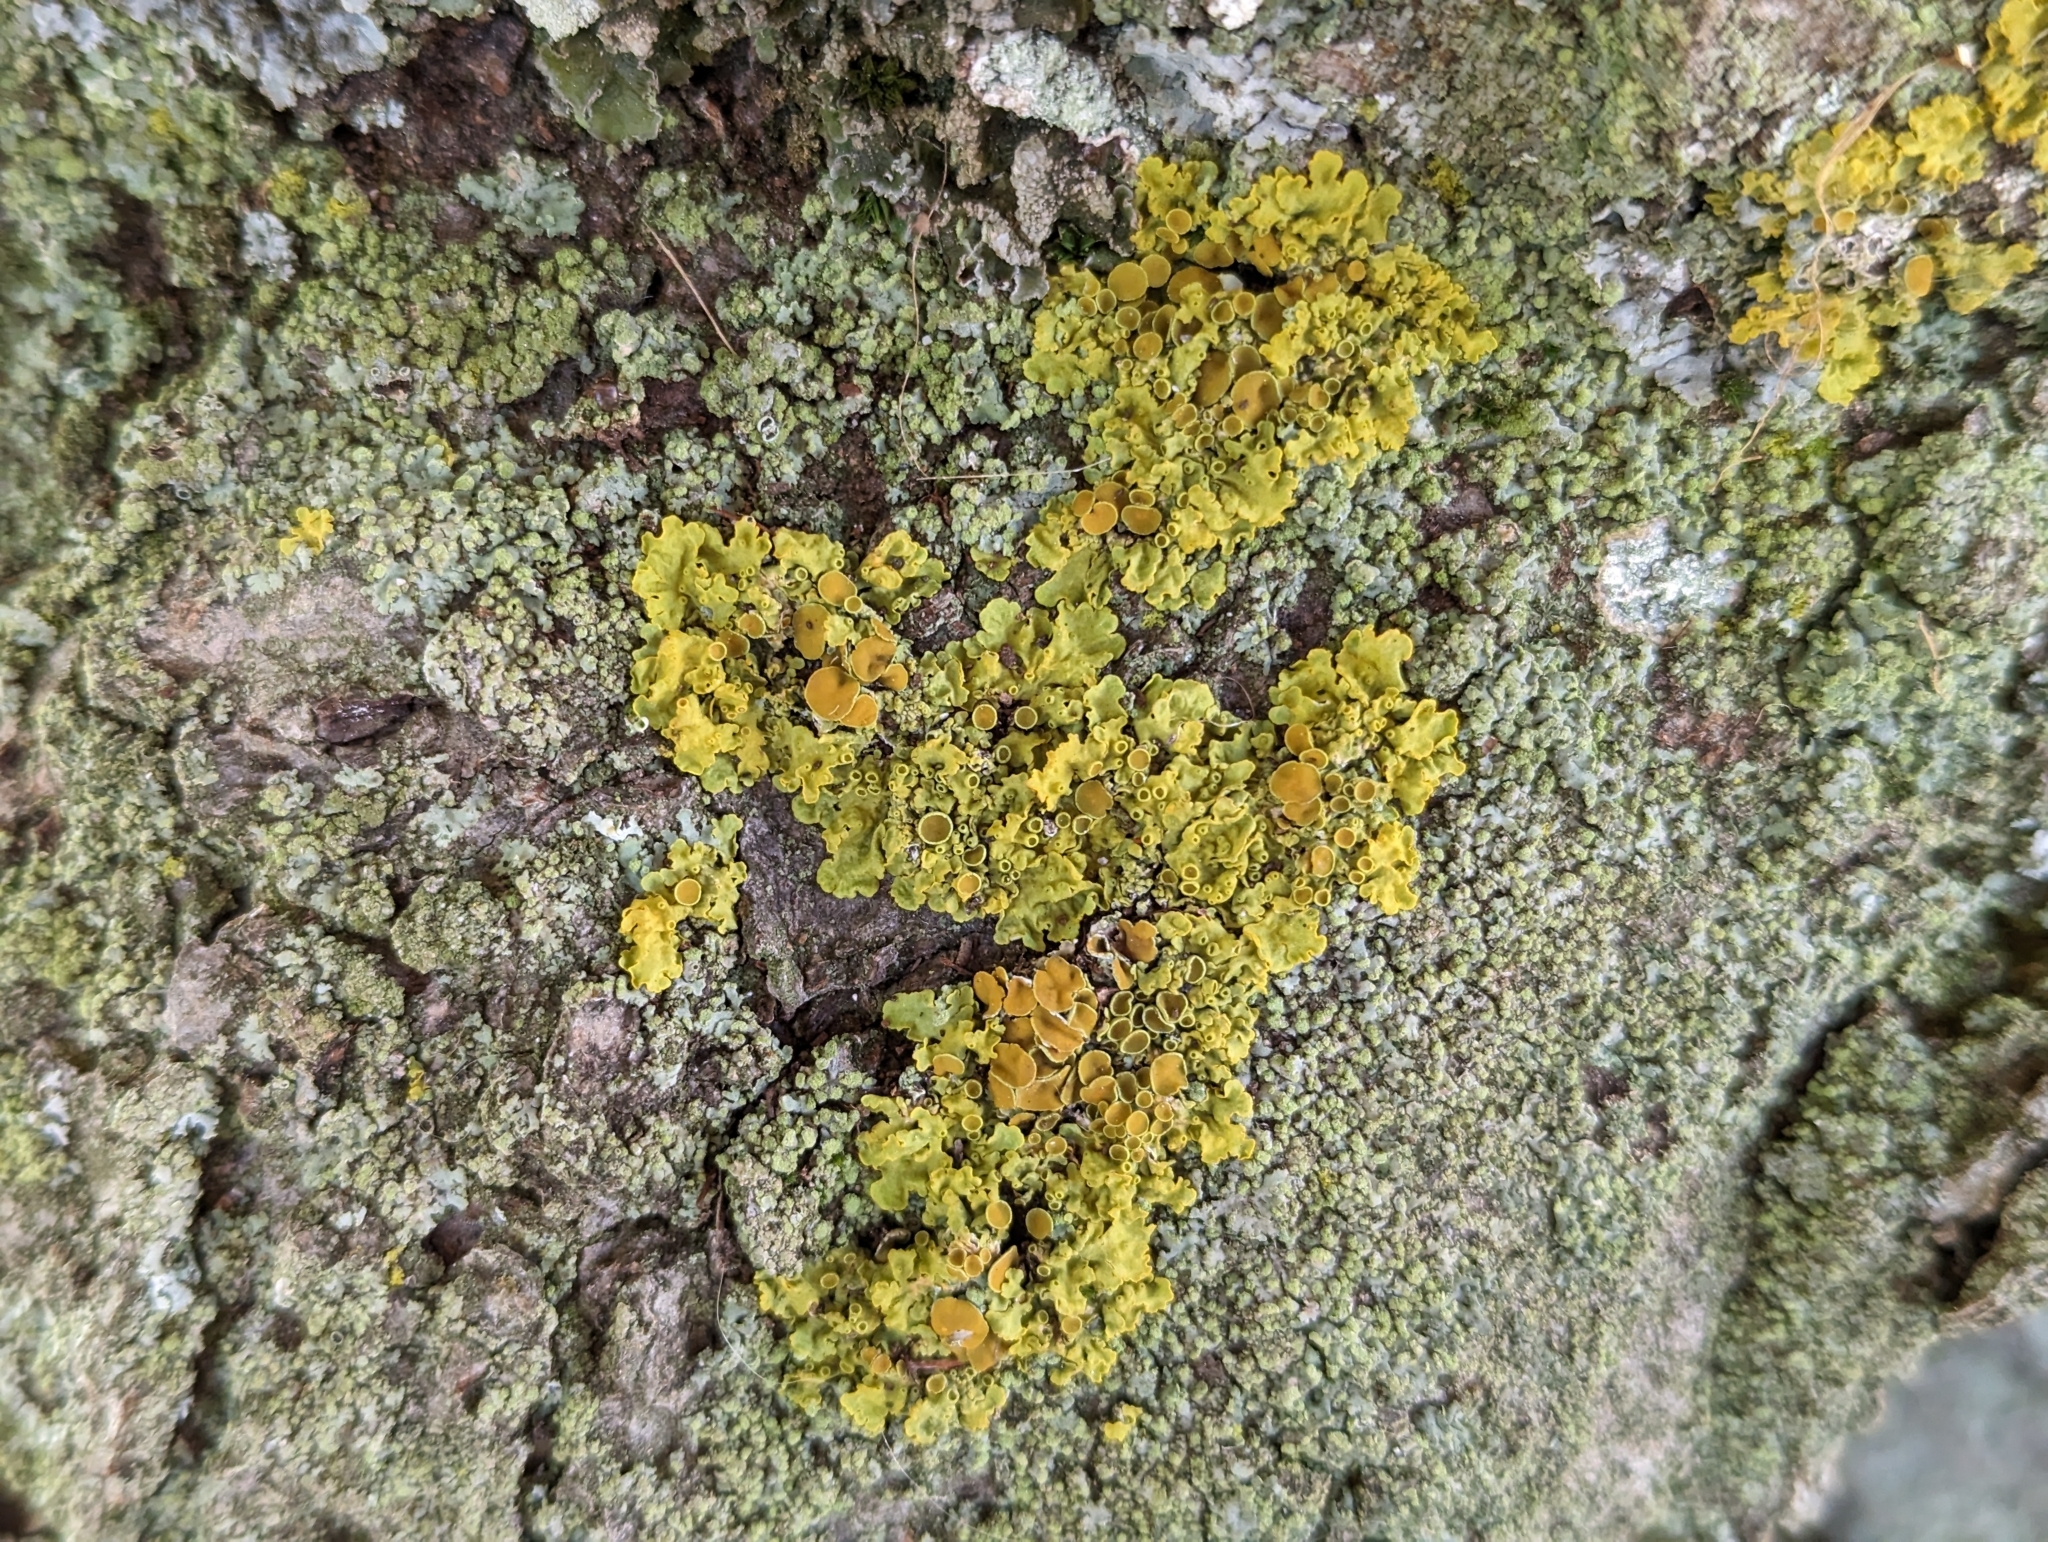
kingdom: Fungi
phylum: Ascomycota
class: Lecanoromycetes
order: Teloschistales
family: Teloschistaceae
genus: Xanthoria
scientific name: Xanthoria parietina
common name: Common orange lichen
